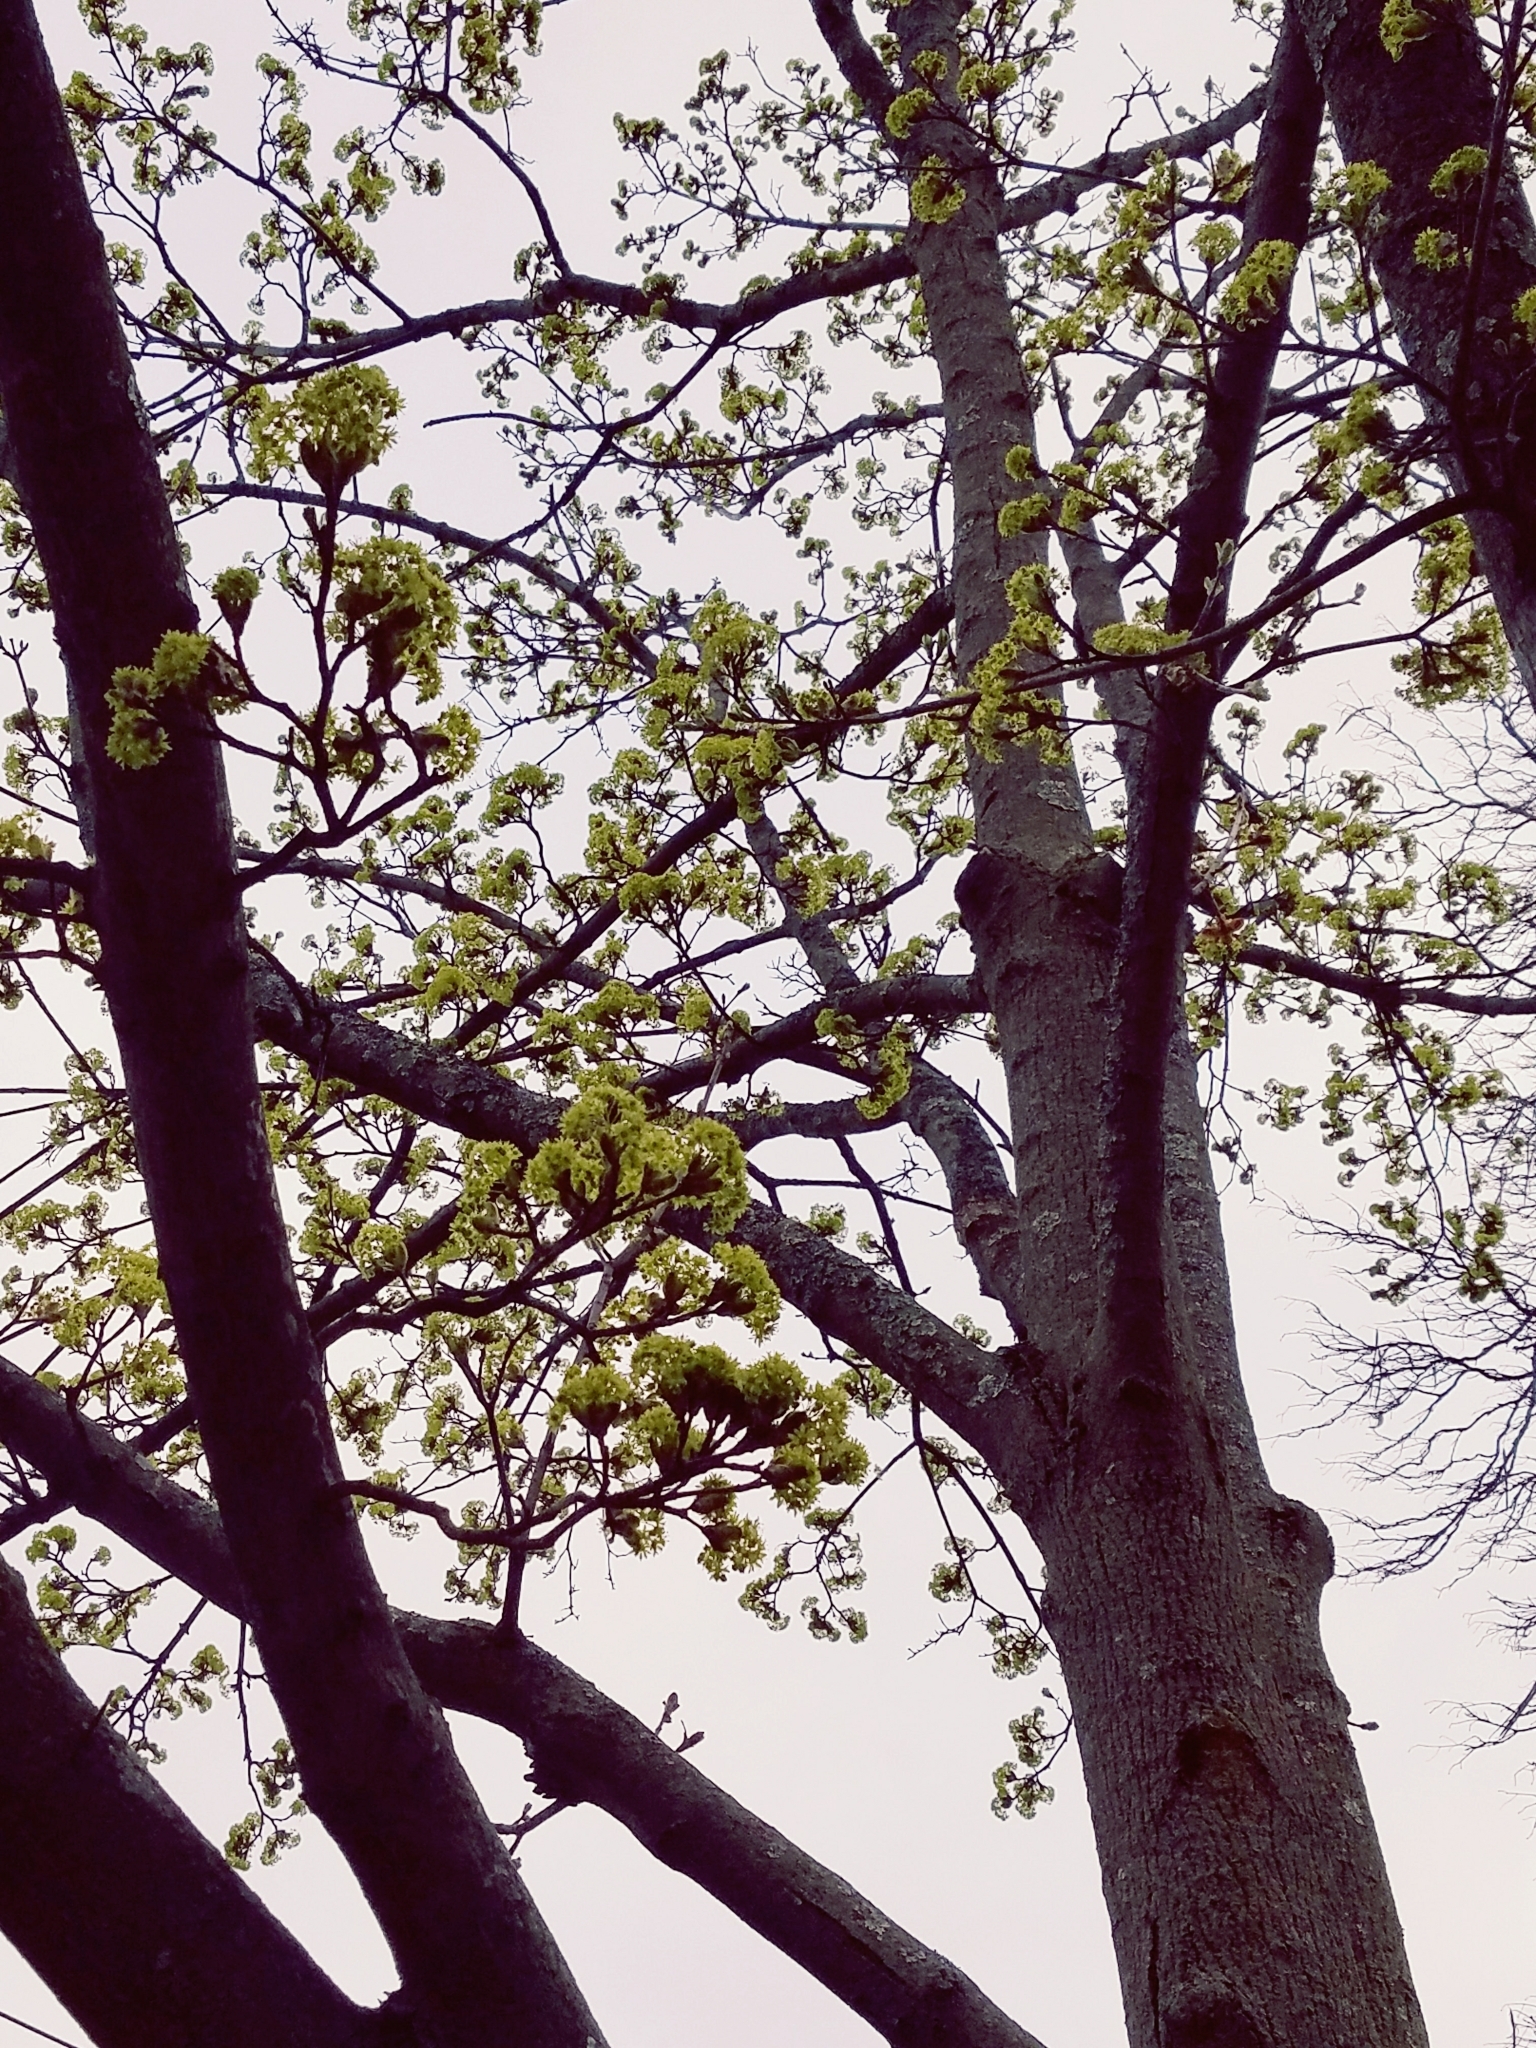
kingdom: Plantae
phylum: Tracheophyta
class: Magnoliopsida
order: Sapindales
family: Sapindaceae
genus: Acer
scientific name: Acer platanoides
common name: Norway maple
